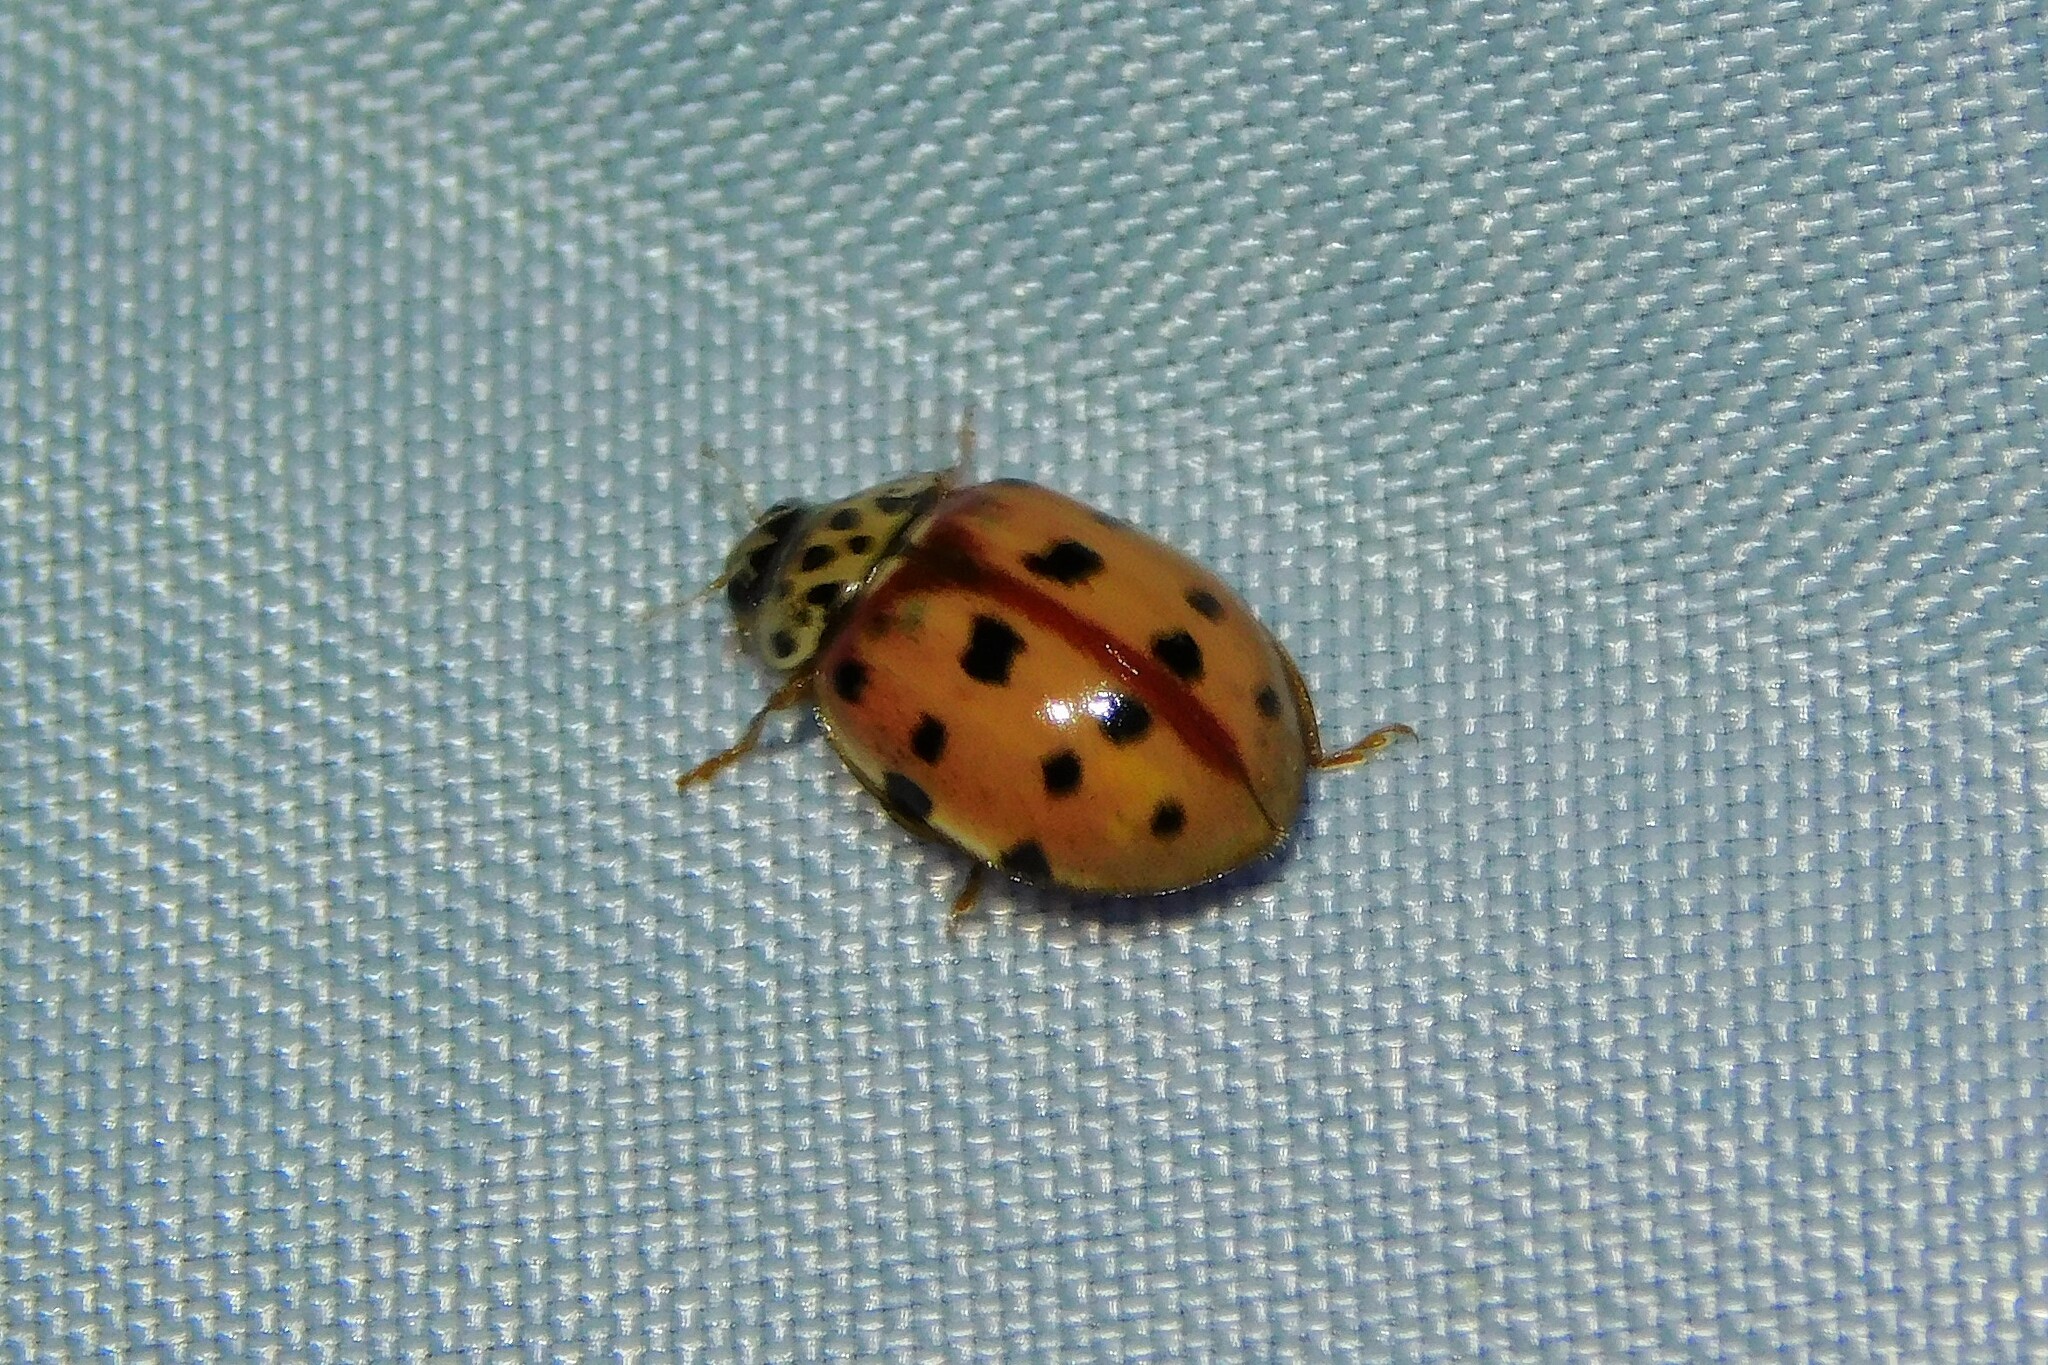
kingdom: Animalia
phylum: Arthropoda
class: Insecta
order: Coleoptera
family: Coccinellidae
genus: Harmonia
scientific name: Harmonia quadripunctata
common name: Cream-streaked ladybird
